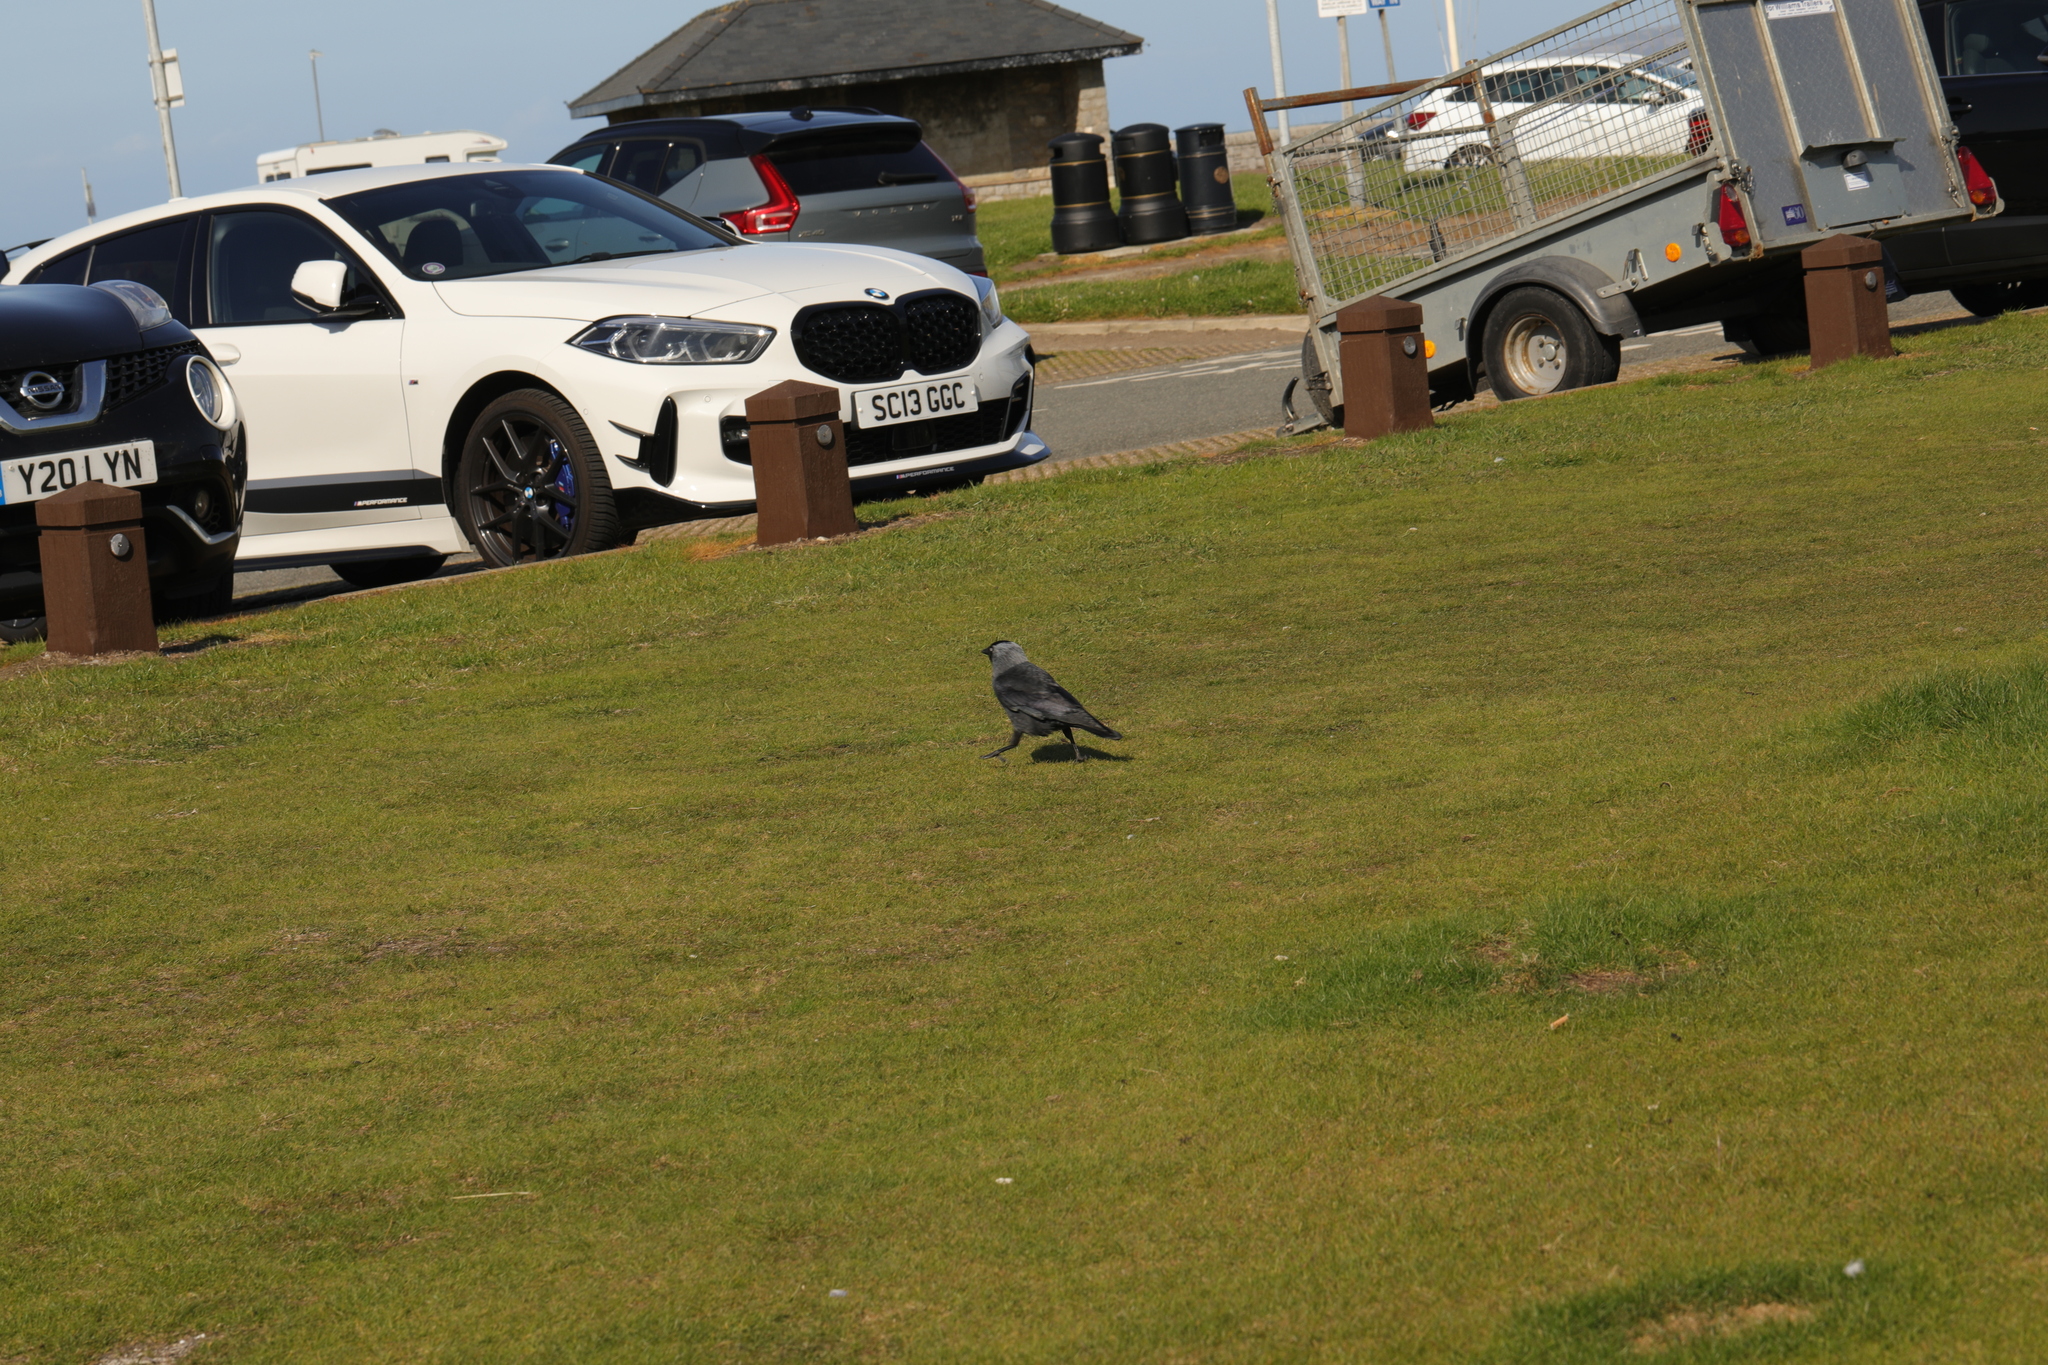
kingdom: Animalia
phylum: Chordata
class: Aves
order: Passeriformes
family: Corvidae
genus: Coloeus
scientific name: Coloeus monedula
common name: Western jackdaw
